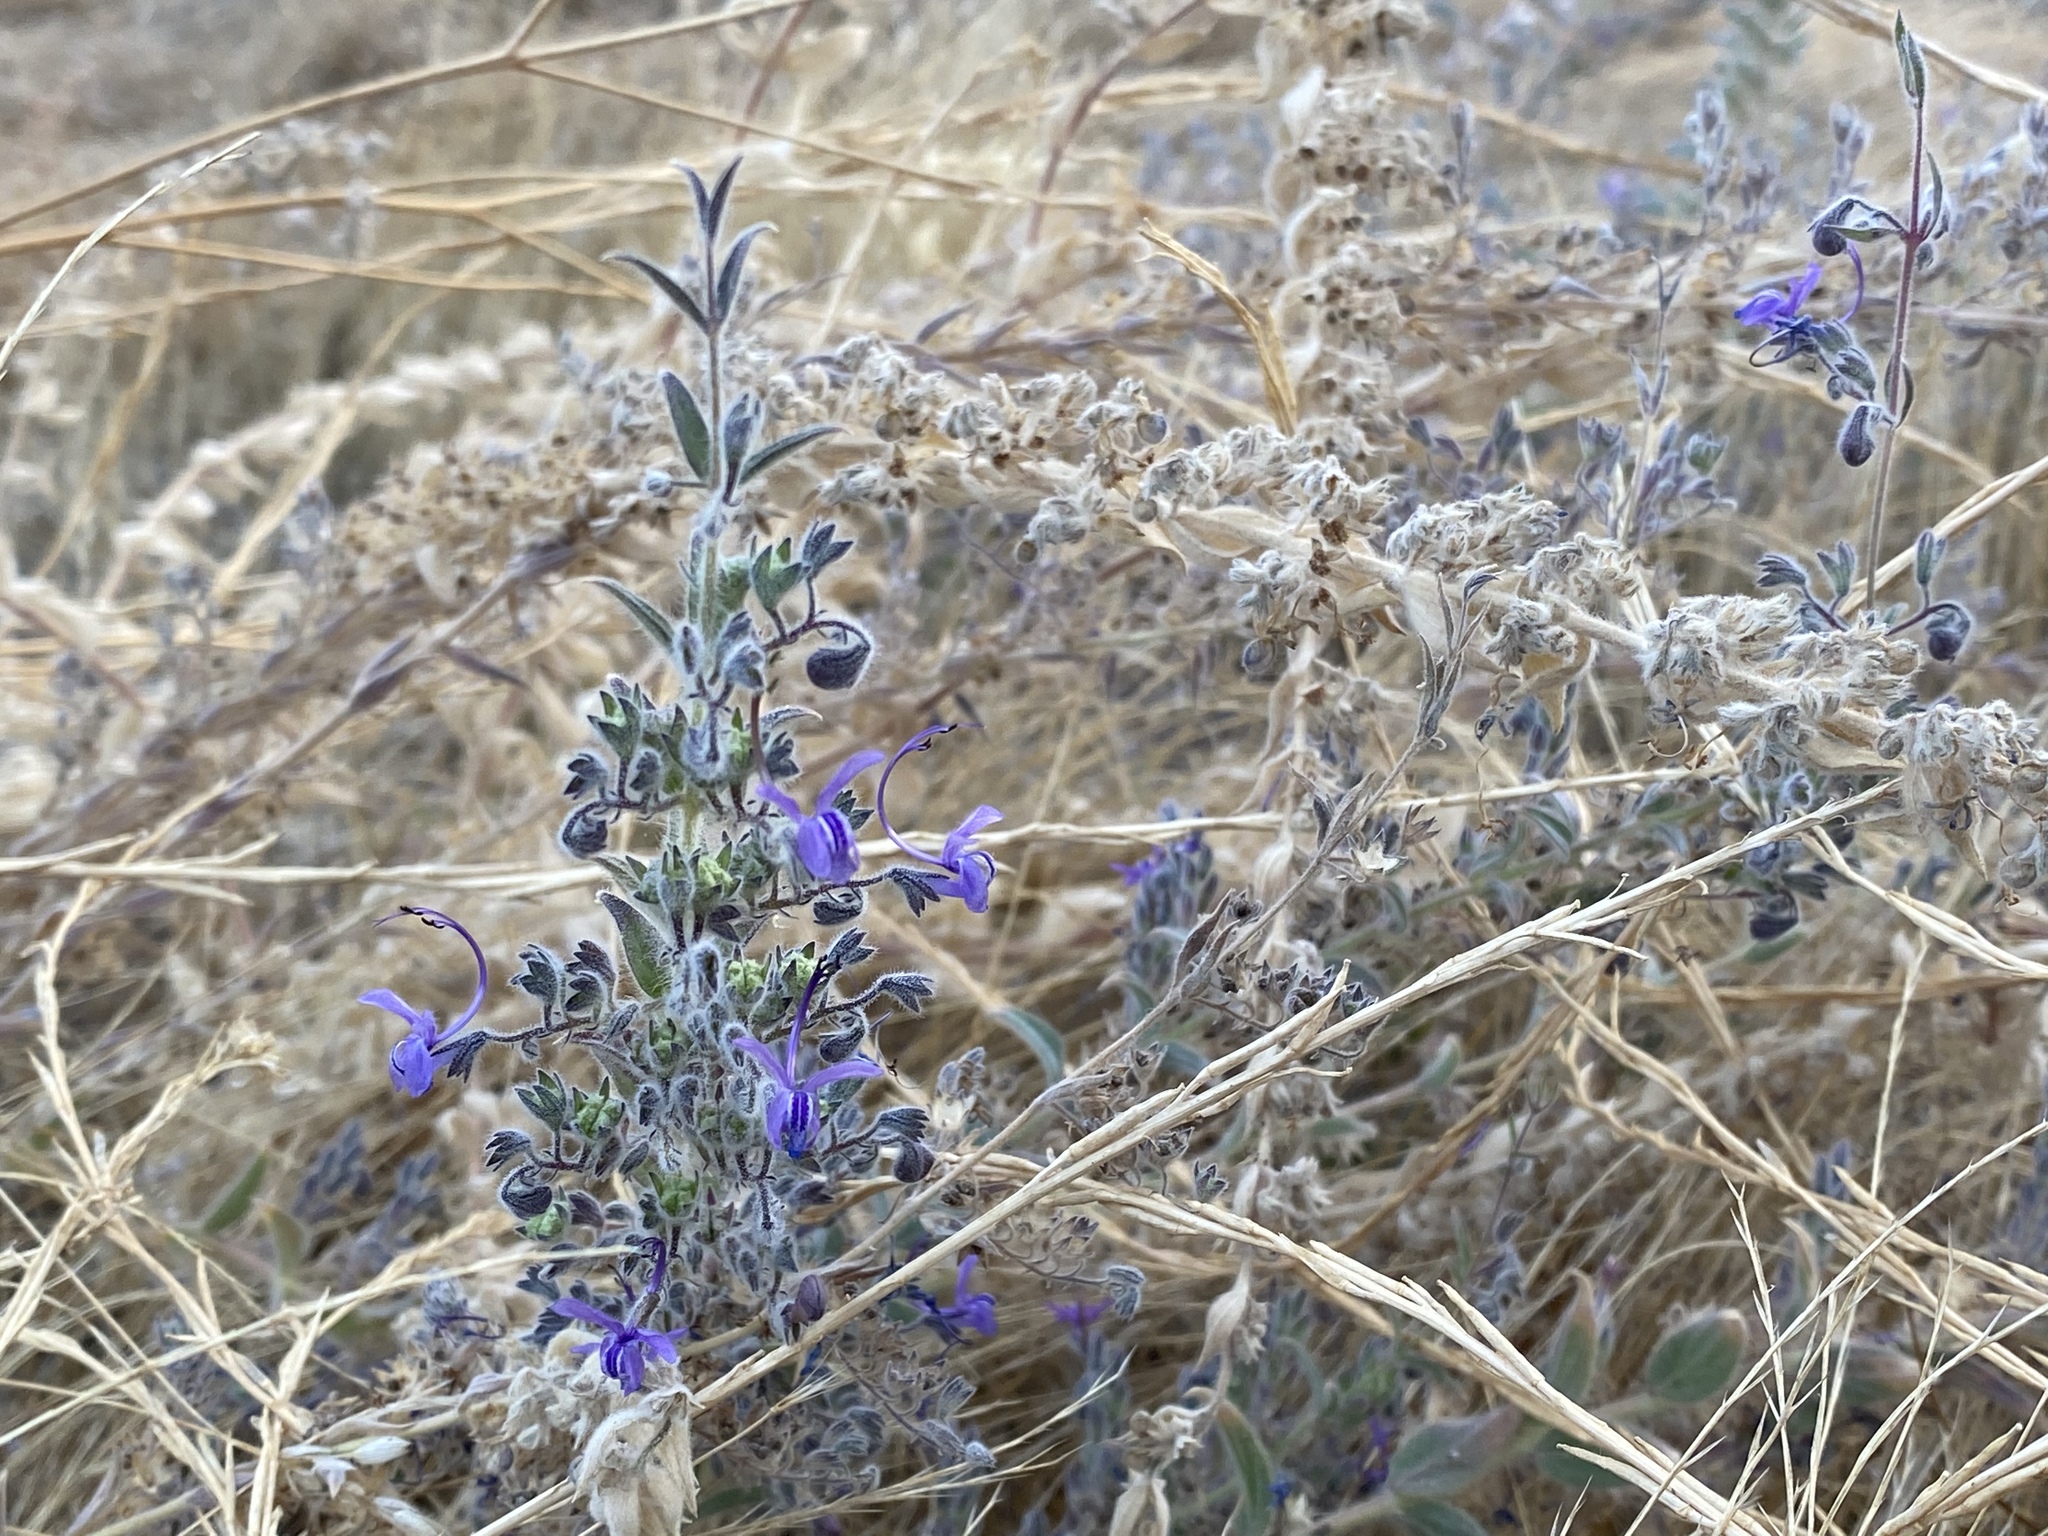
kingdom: Plantae
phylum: Tracheophyta
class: Magnoliopsida
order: Lamiales
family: Lamiaceae
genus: Trichostema
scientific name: Trichostema lanceolatum
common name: Vinegar-weed
